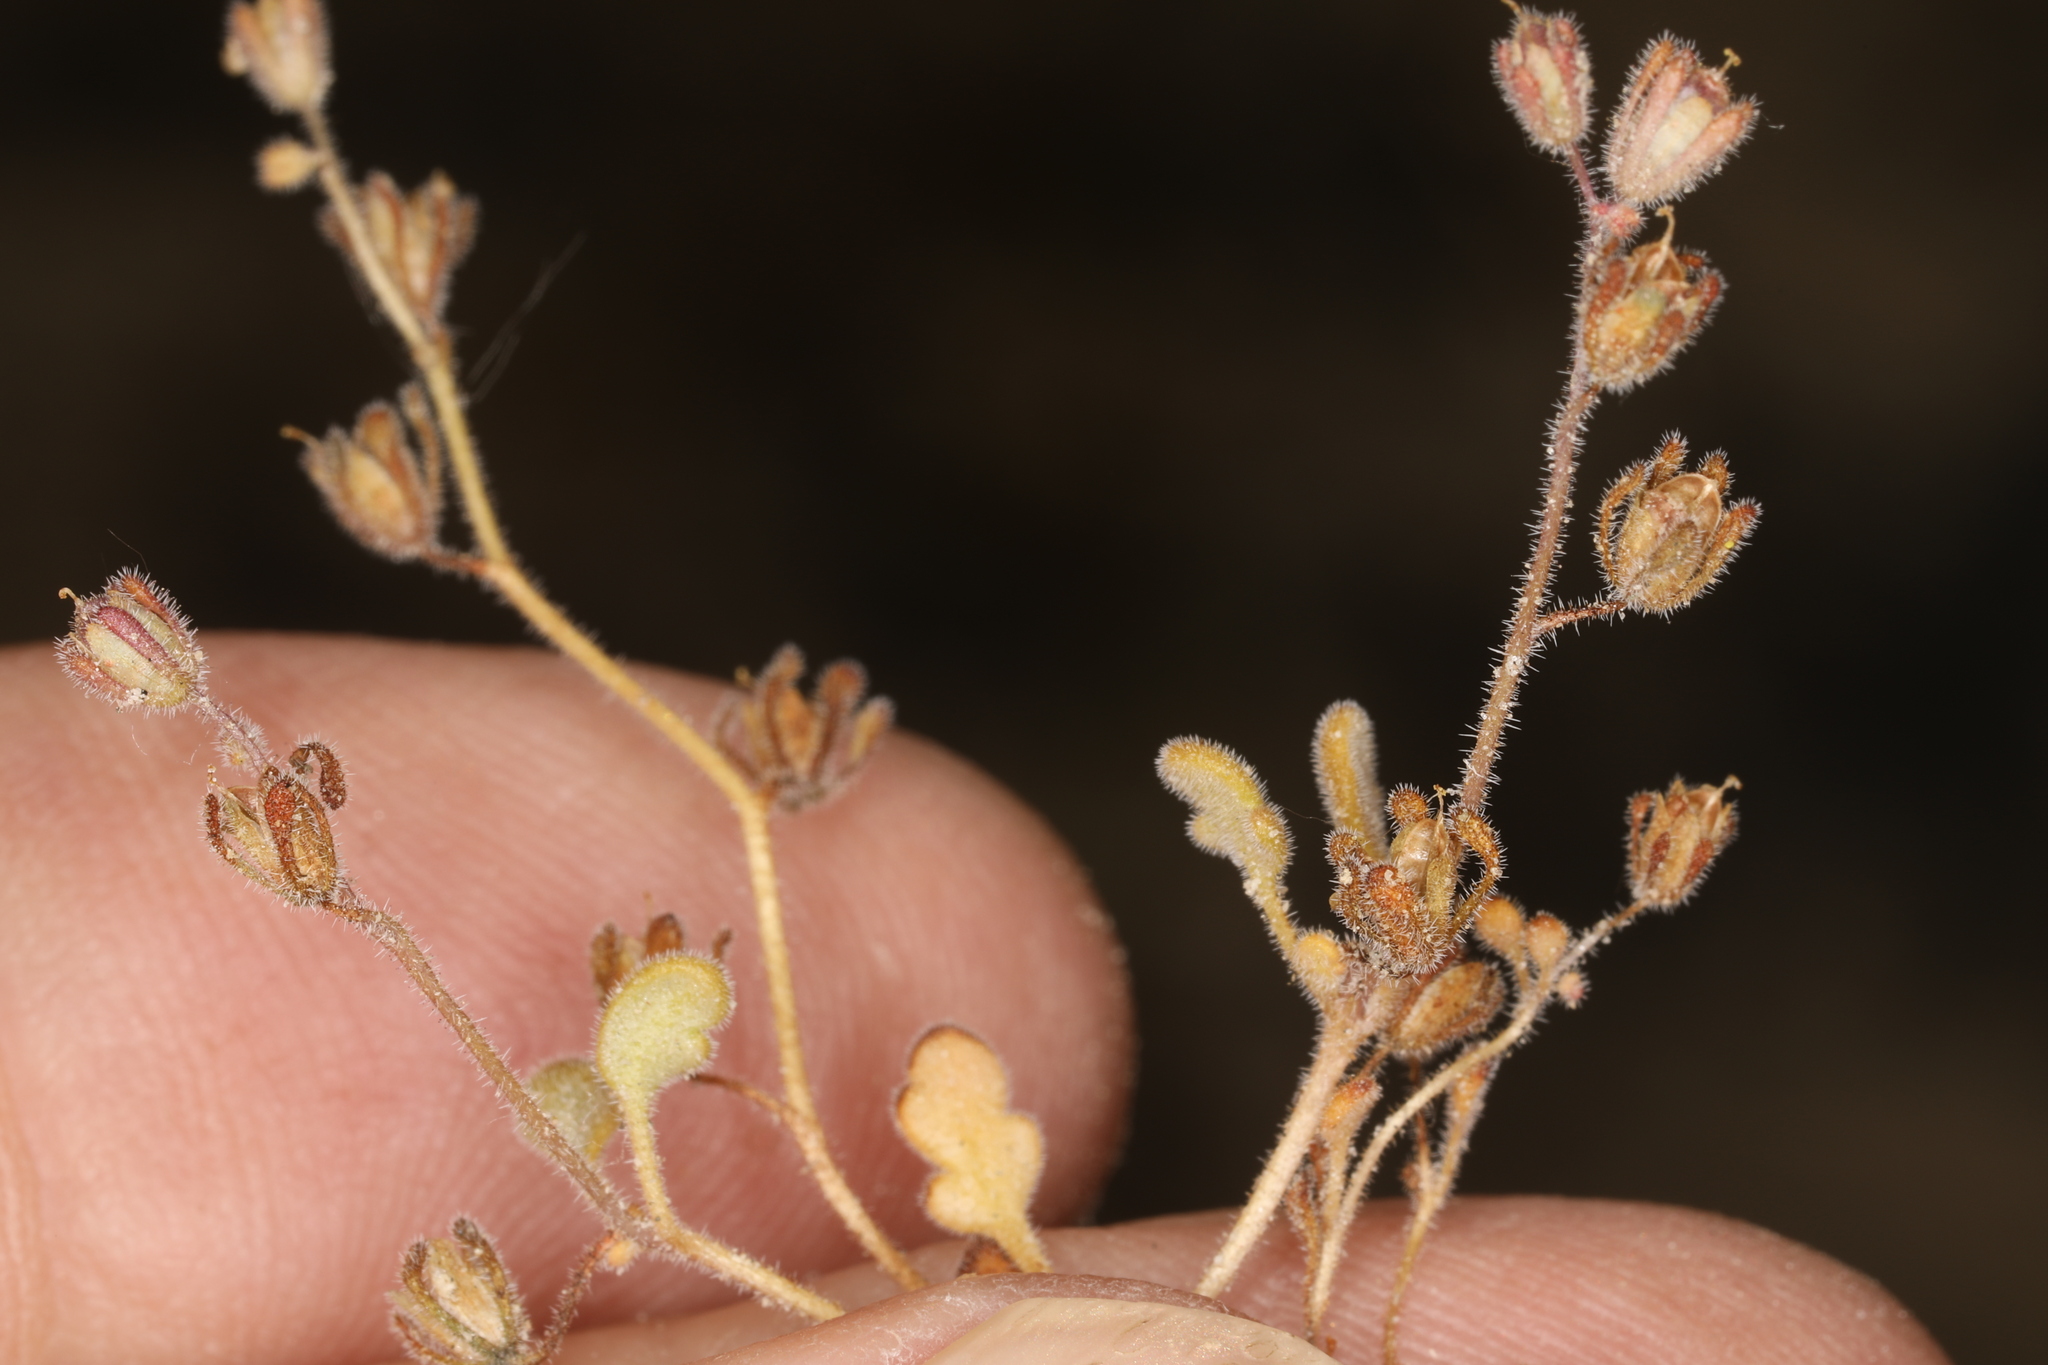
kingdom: Plantae
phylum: Tracheophyta
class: Magnoliopsida
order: Boraginales
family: Hydrophyllaceae
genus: Phacelia
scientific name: Phacelia inyoensis
